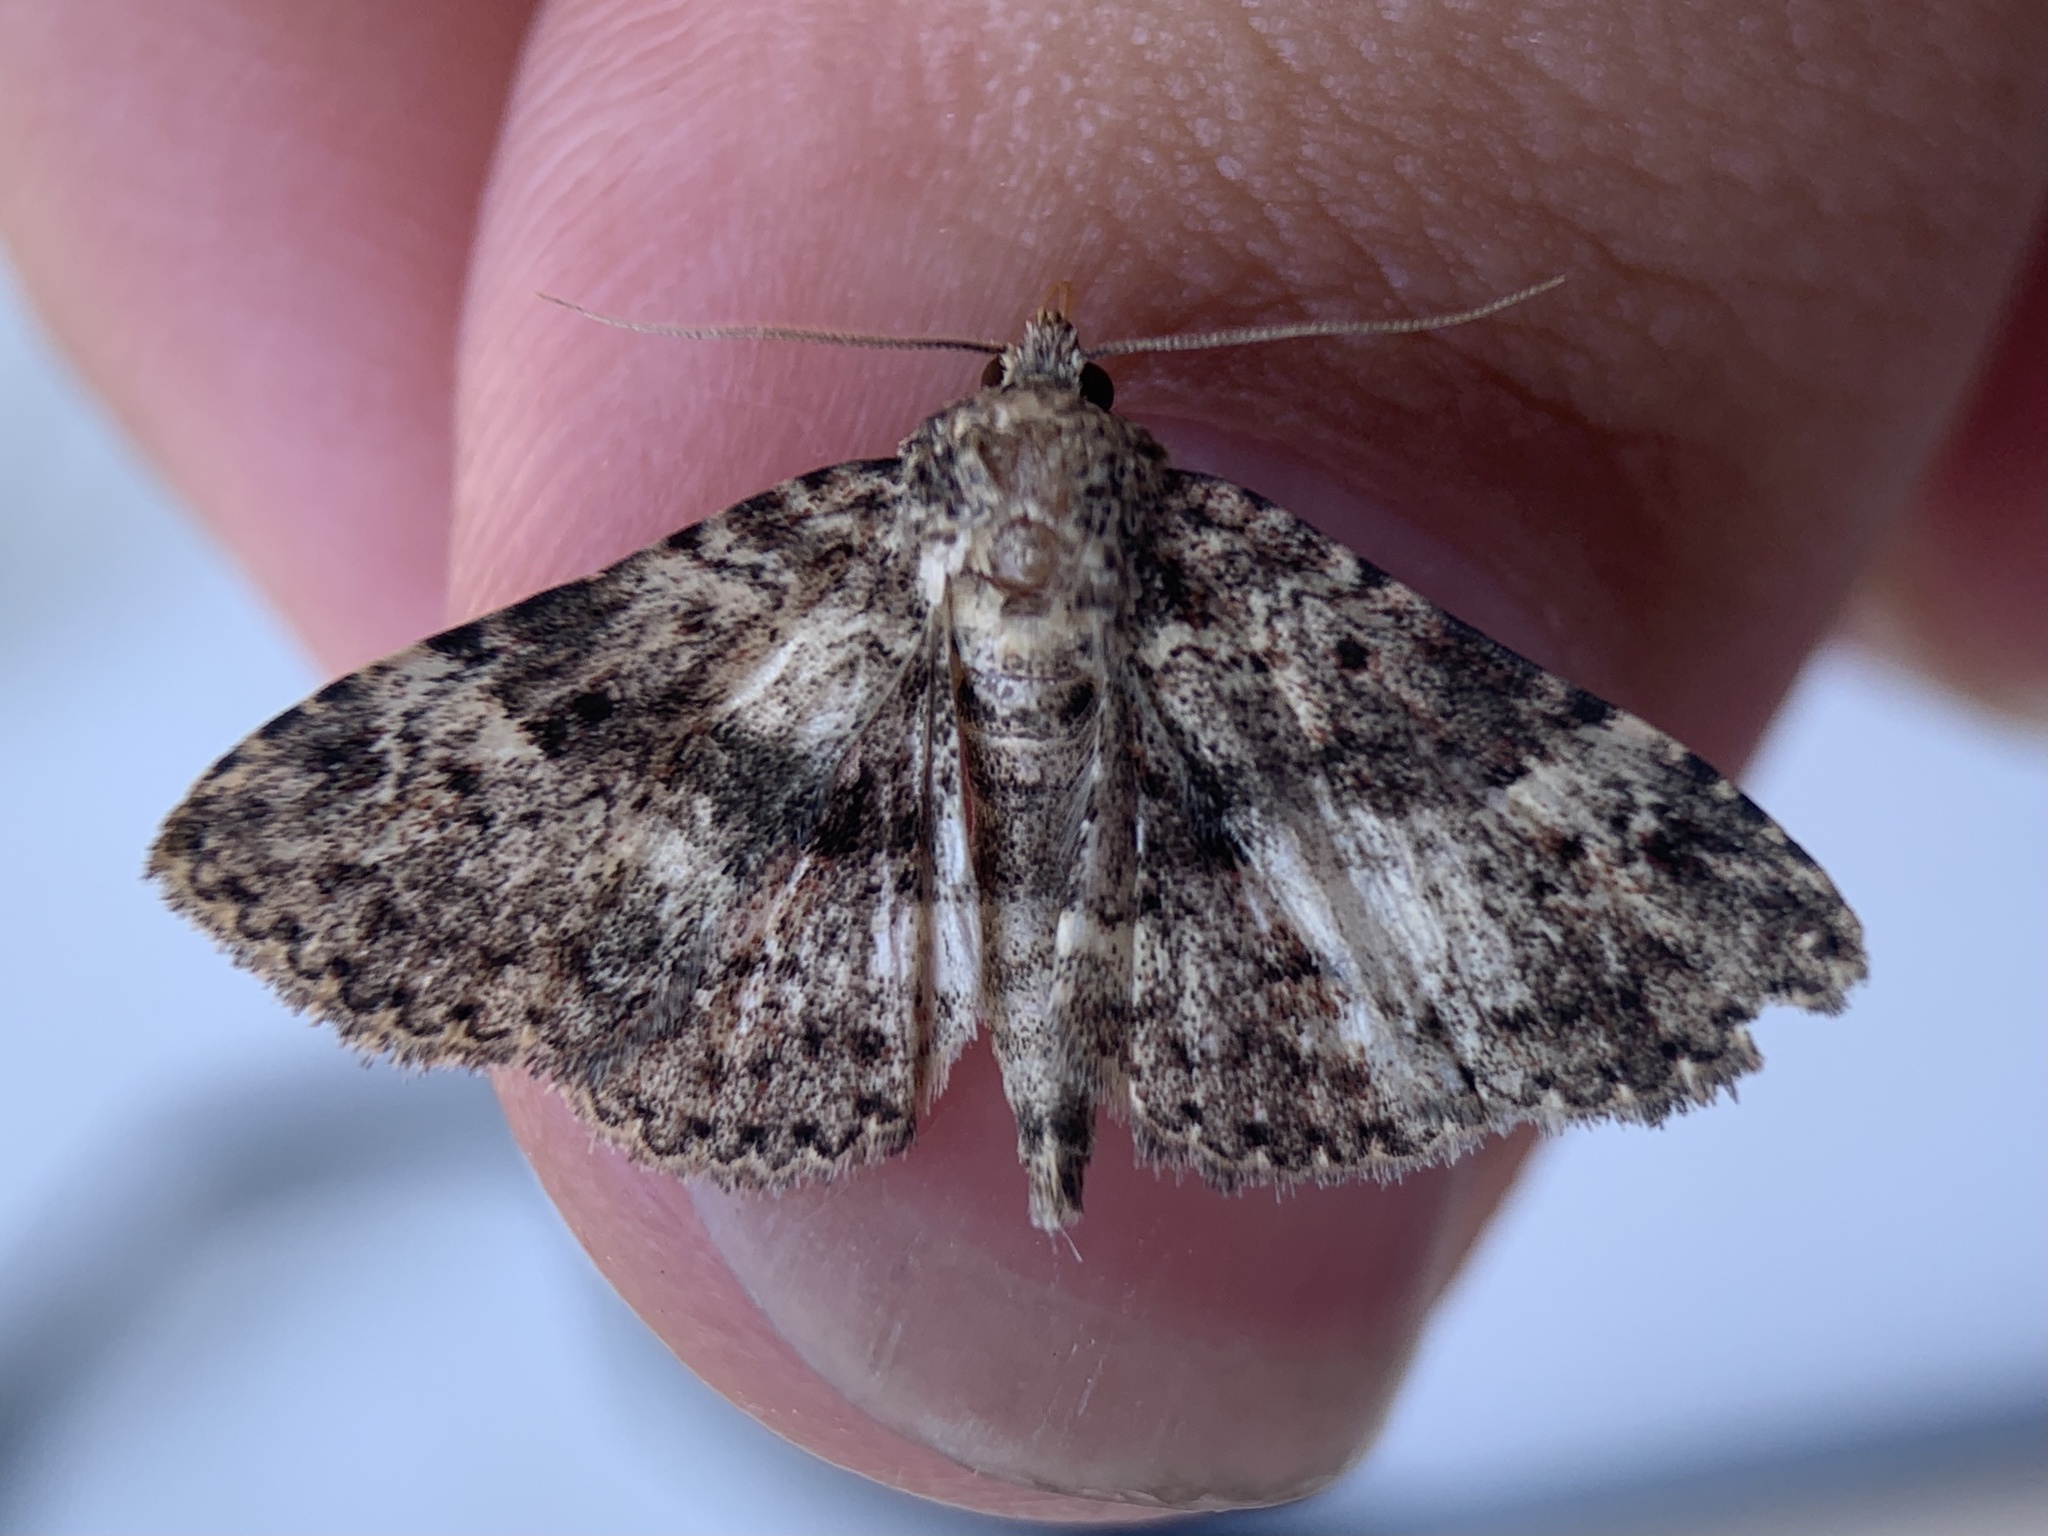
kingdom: Animalia
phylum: Arthropoda
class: Insecta
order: Lepidoptera
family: Erebidae
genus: Metalectra
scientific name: Metalectra discalis
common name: Common fungus moth
